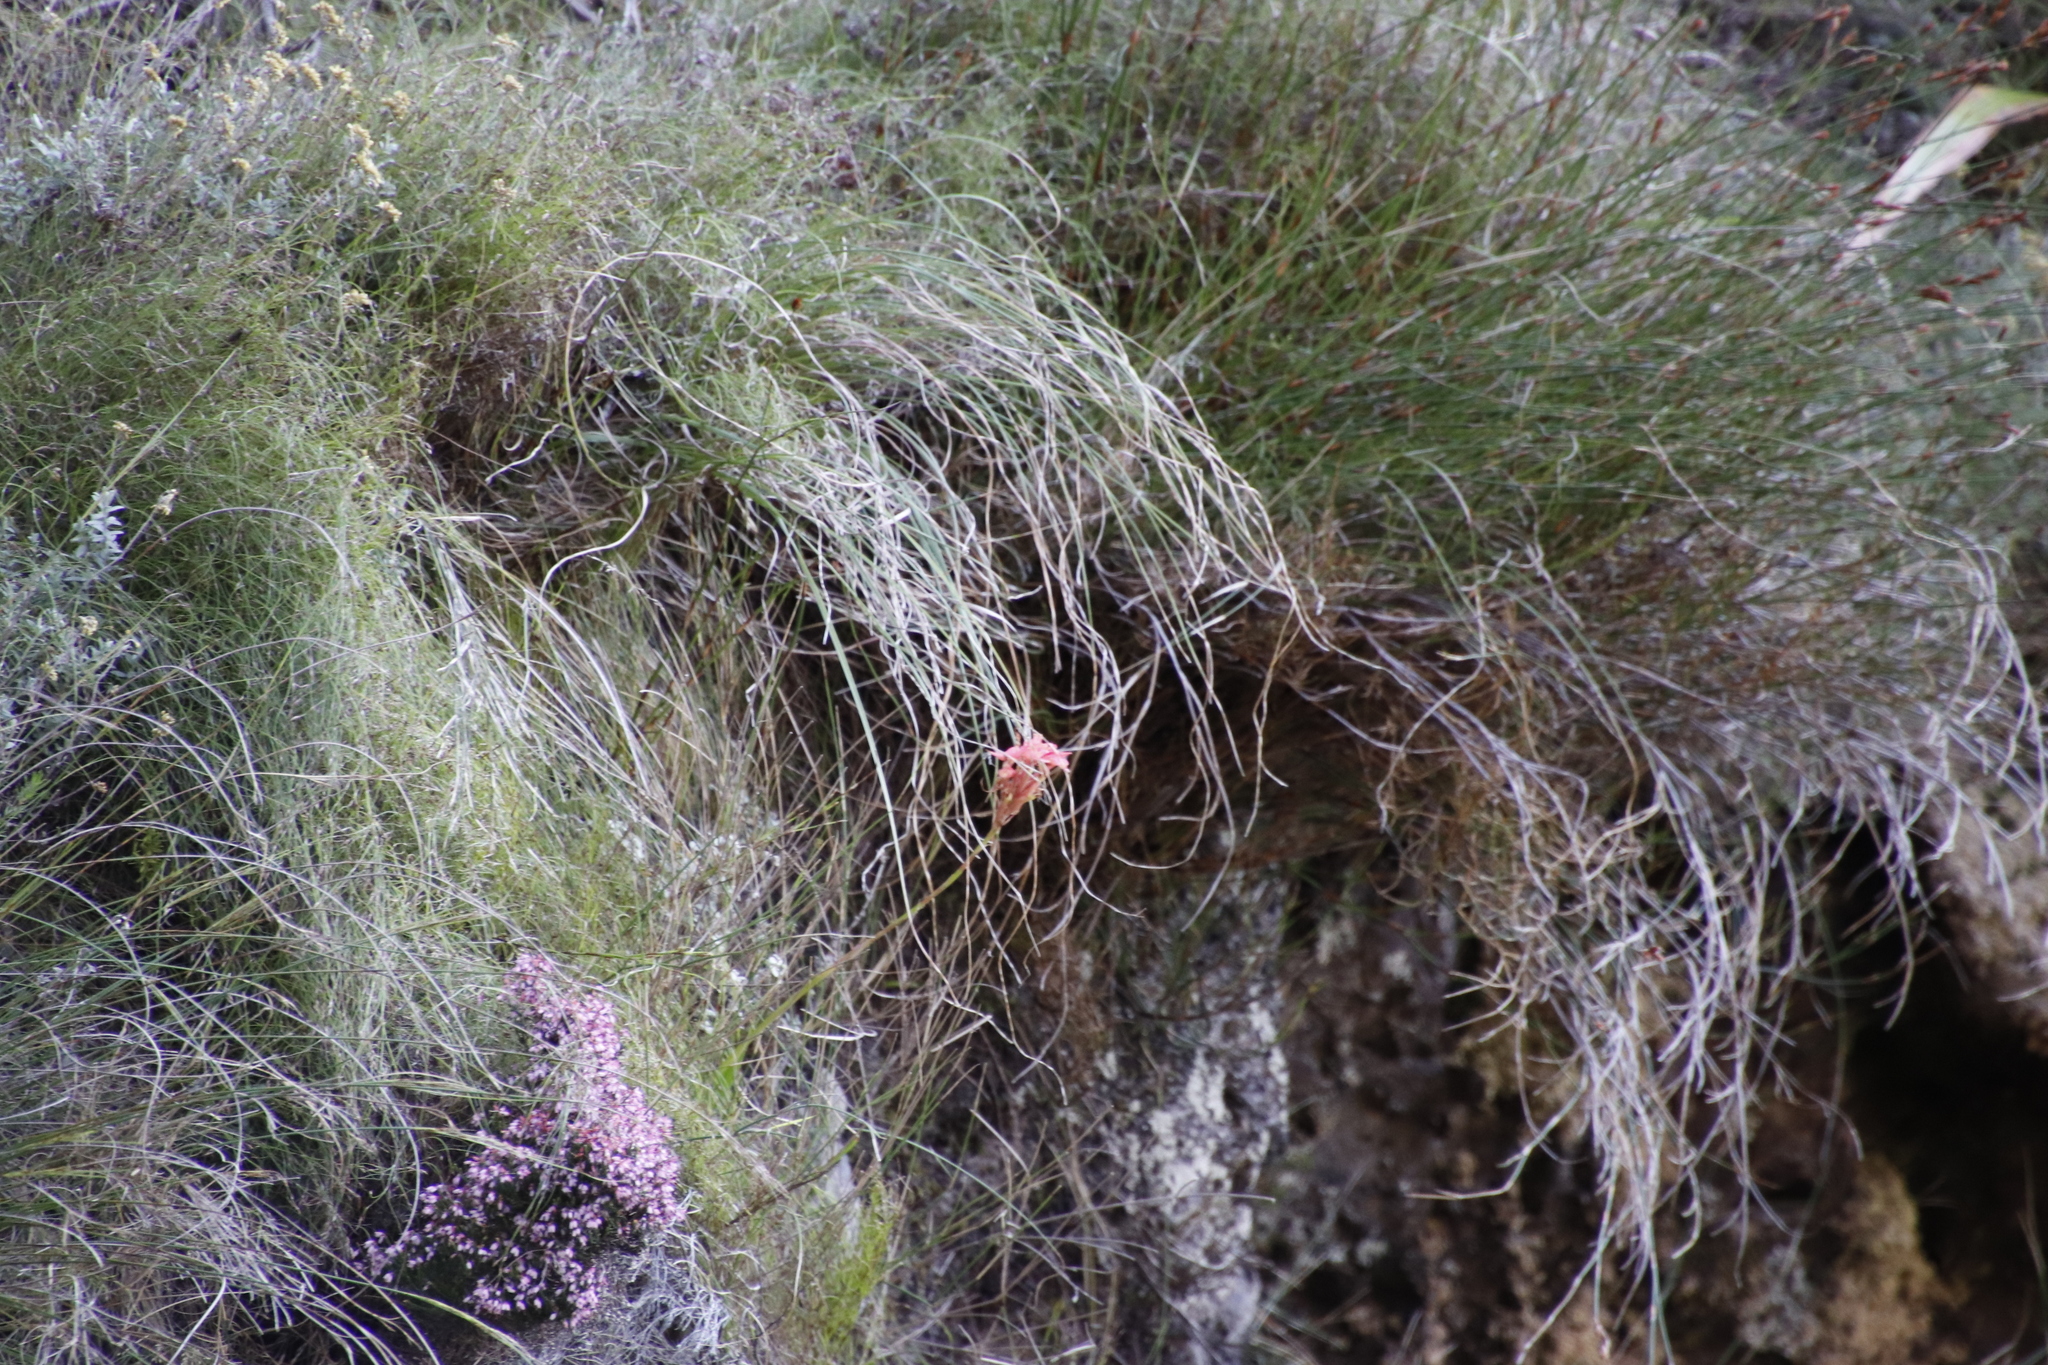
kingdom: Plantae
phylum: Tracheophyta
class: Liliopsida
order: Asparagales
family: Orchidaceae
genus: Disa
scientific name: Disa ferruginea
